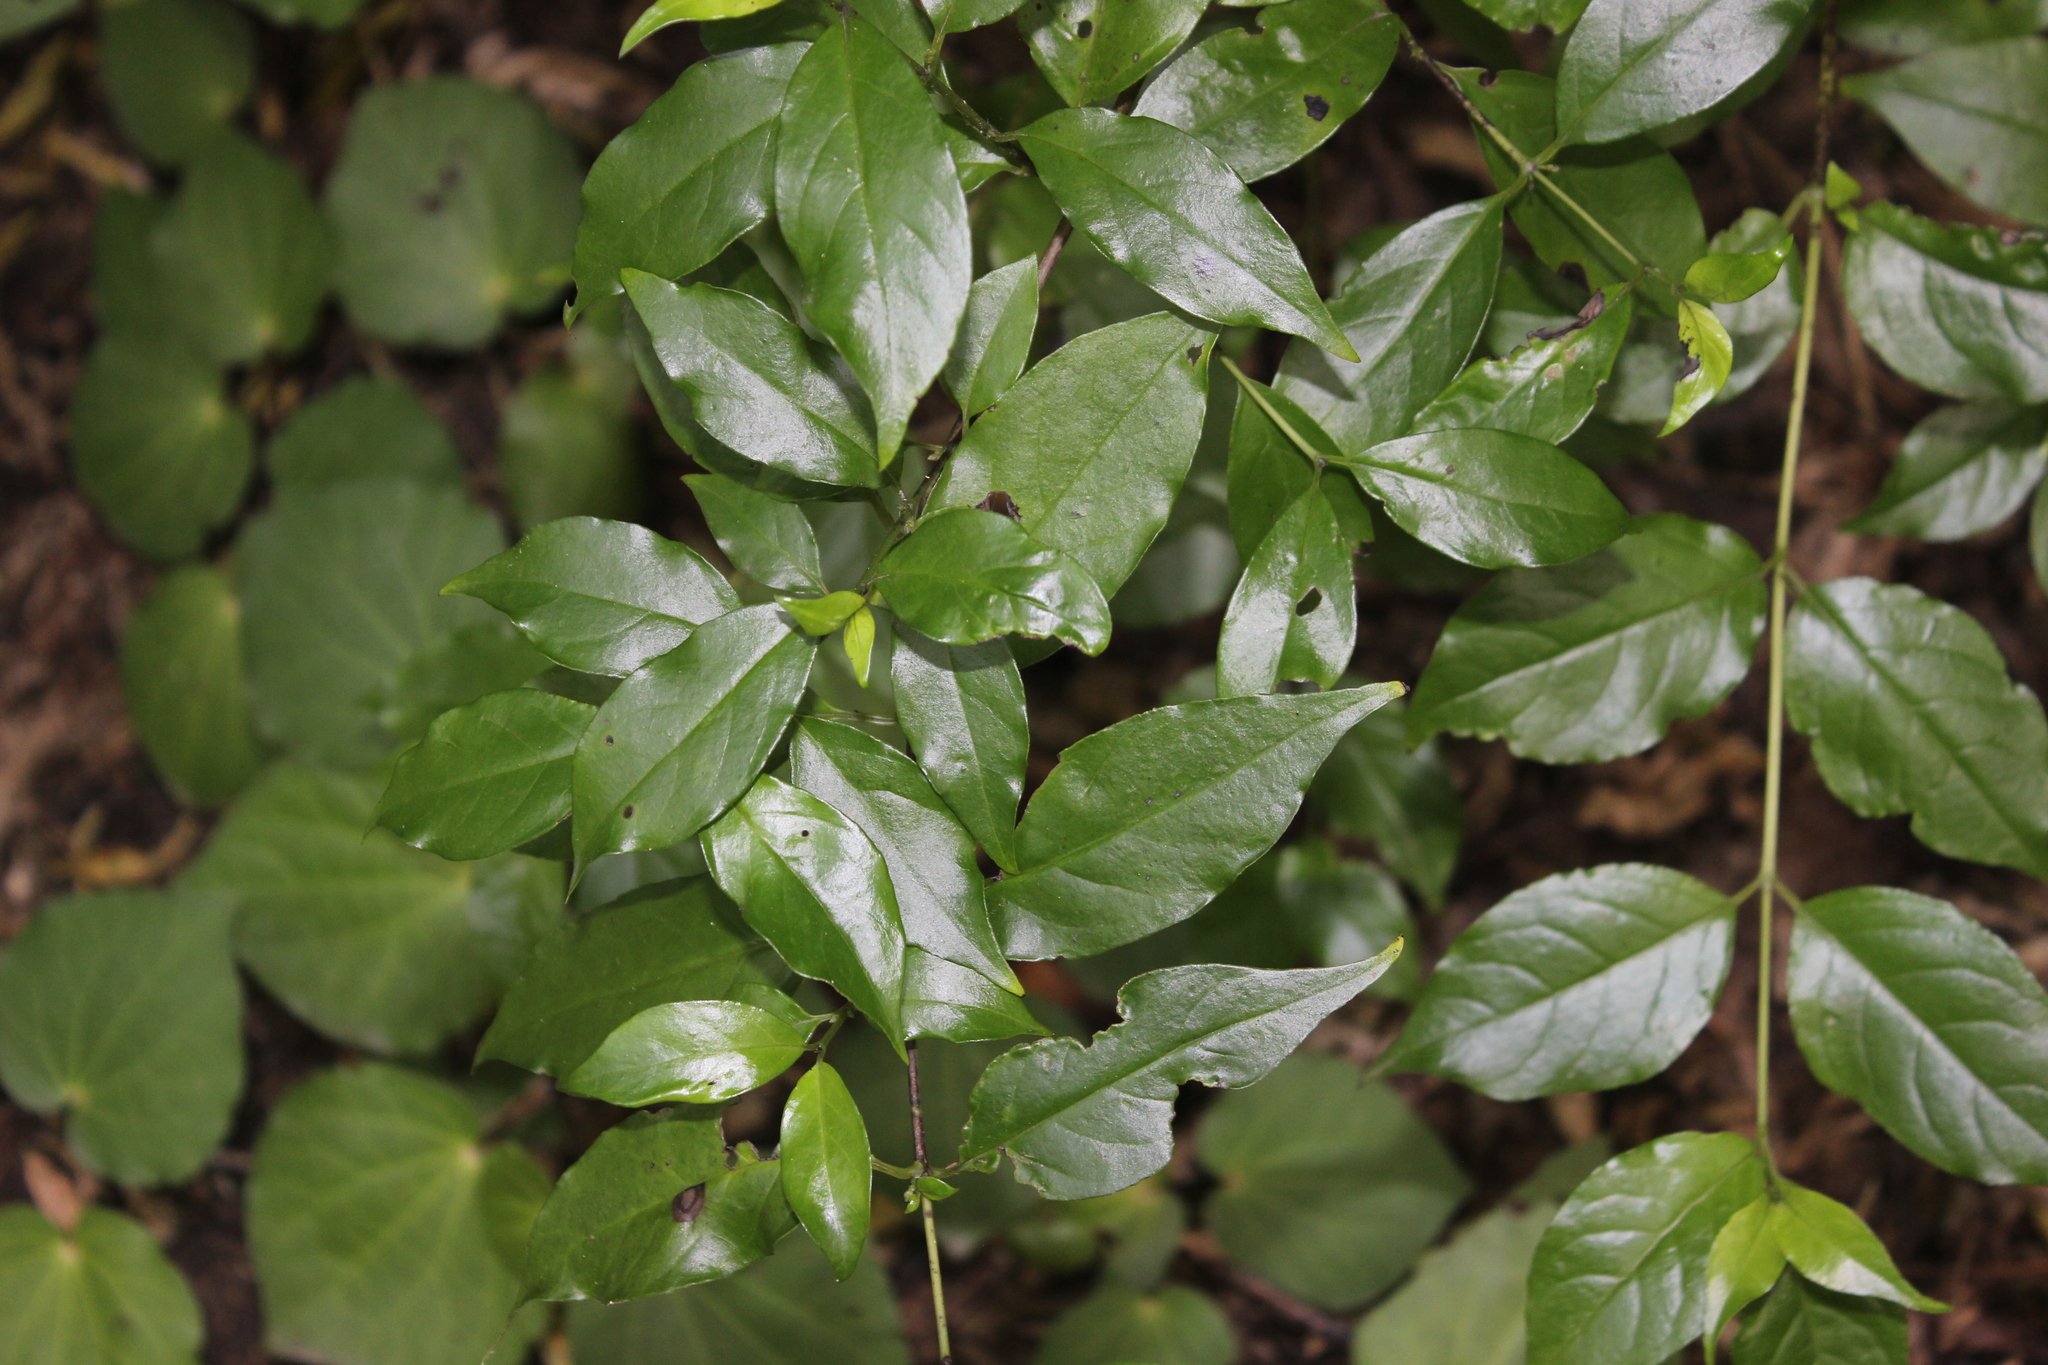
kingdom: Plantae
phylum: Tracheophyta
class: Magnoliopsida
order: Gentianales
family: Loganiaceae
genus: Geniostoma
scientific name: Geniostoma ligustrifolium
